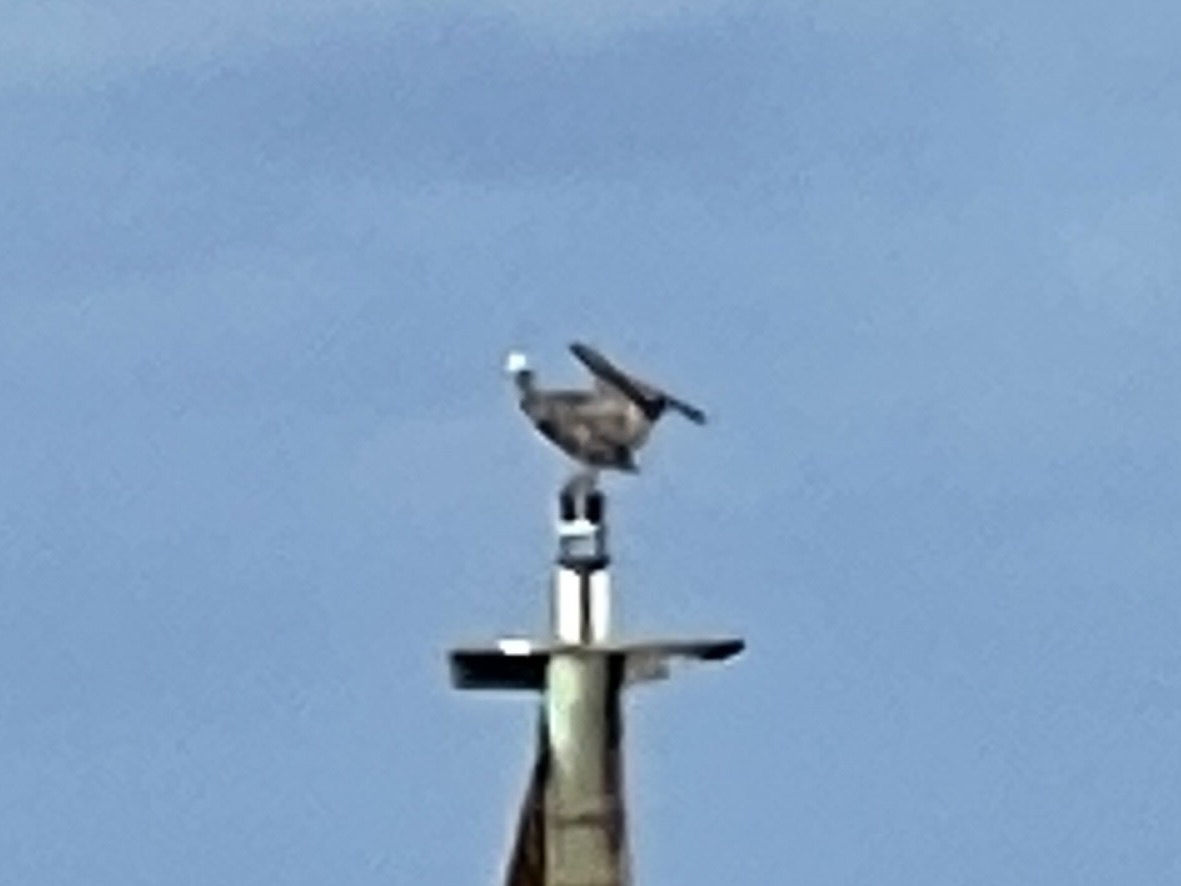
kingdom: Animalia
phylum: Chordata
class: Aves
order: Pelecaniformes
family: Pelecanidae
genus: Pelecanus
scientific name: Pelecanus occidentalis
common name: Brown pelican
